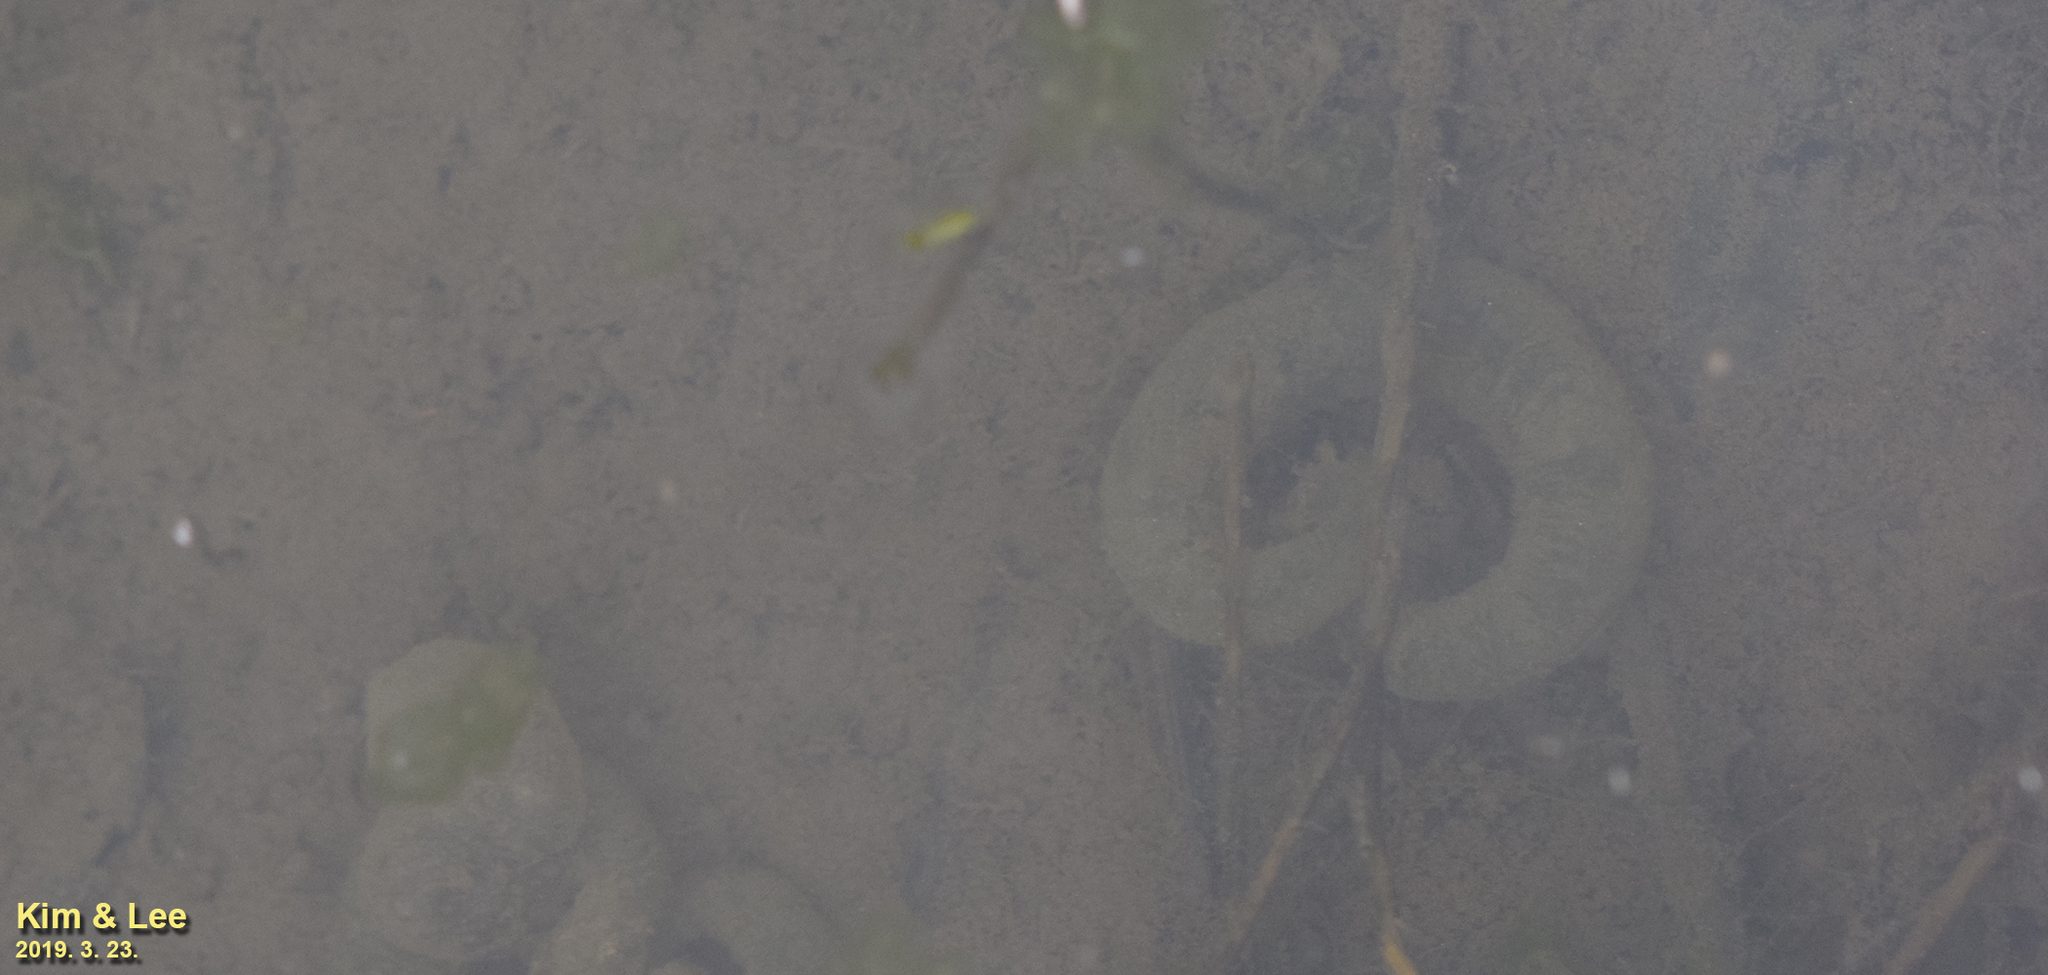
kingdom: Animalia
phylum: Chordata
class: Amphibia
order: Caudata
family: Hynobiidae
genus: Hynobius
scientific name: Hynobius leechii
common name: Gensan salamander
